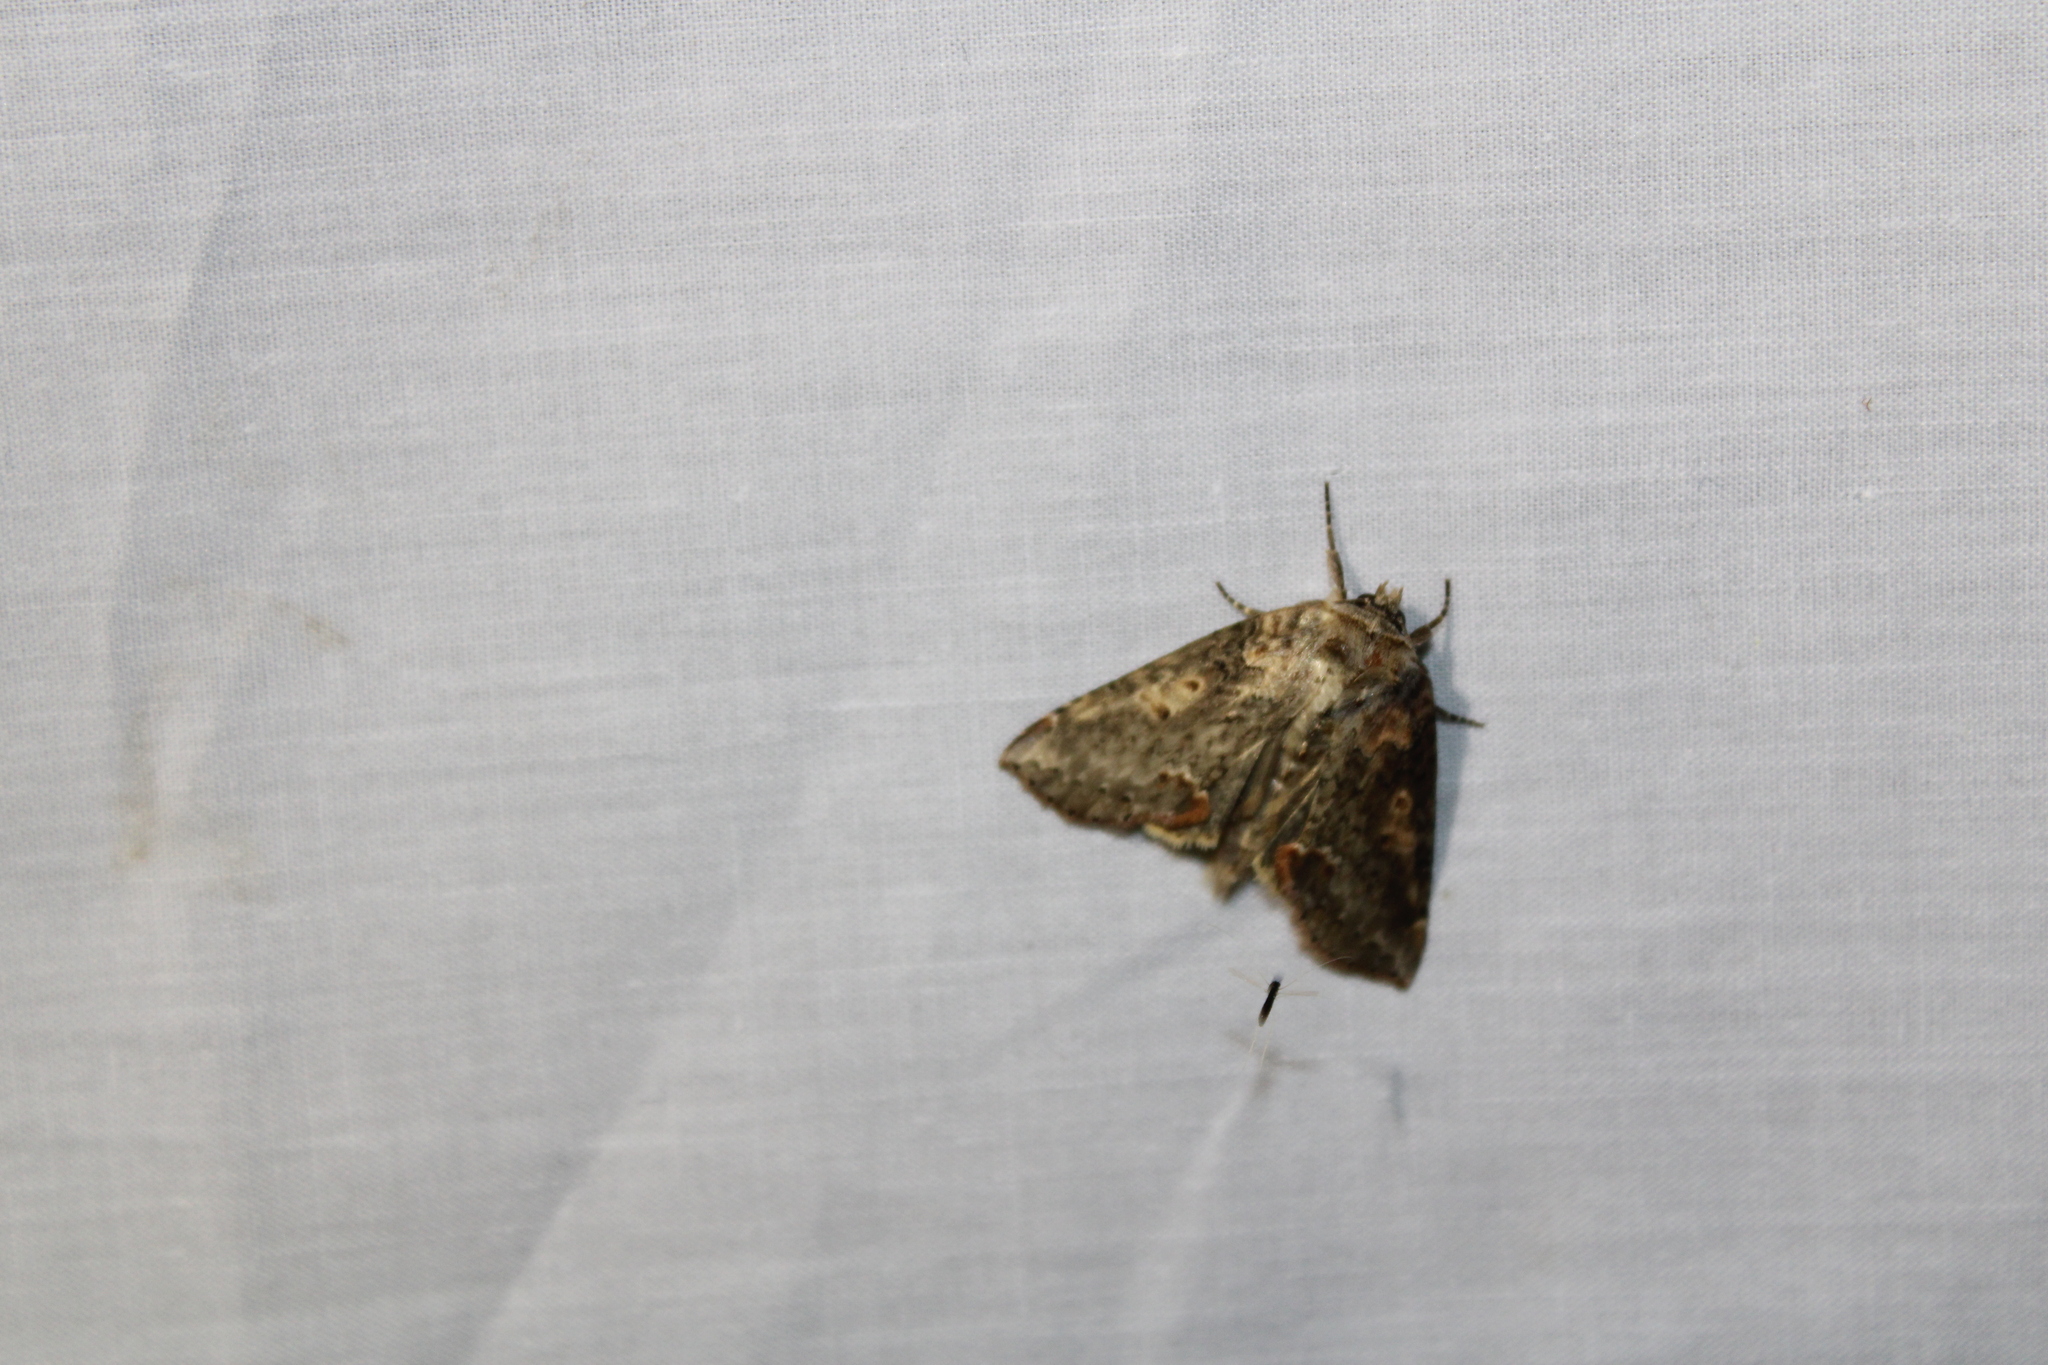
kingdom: Animalia
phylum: Arthropoda
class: Insecta
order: Lepidoptera
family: Drepanidae
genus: Pseudothyatira
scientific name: Pseudothyatira cymatophoroides
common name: Tufted thyatirid moth
